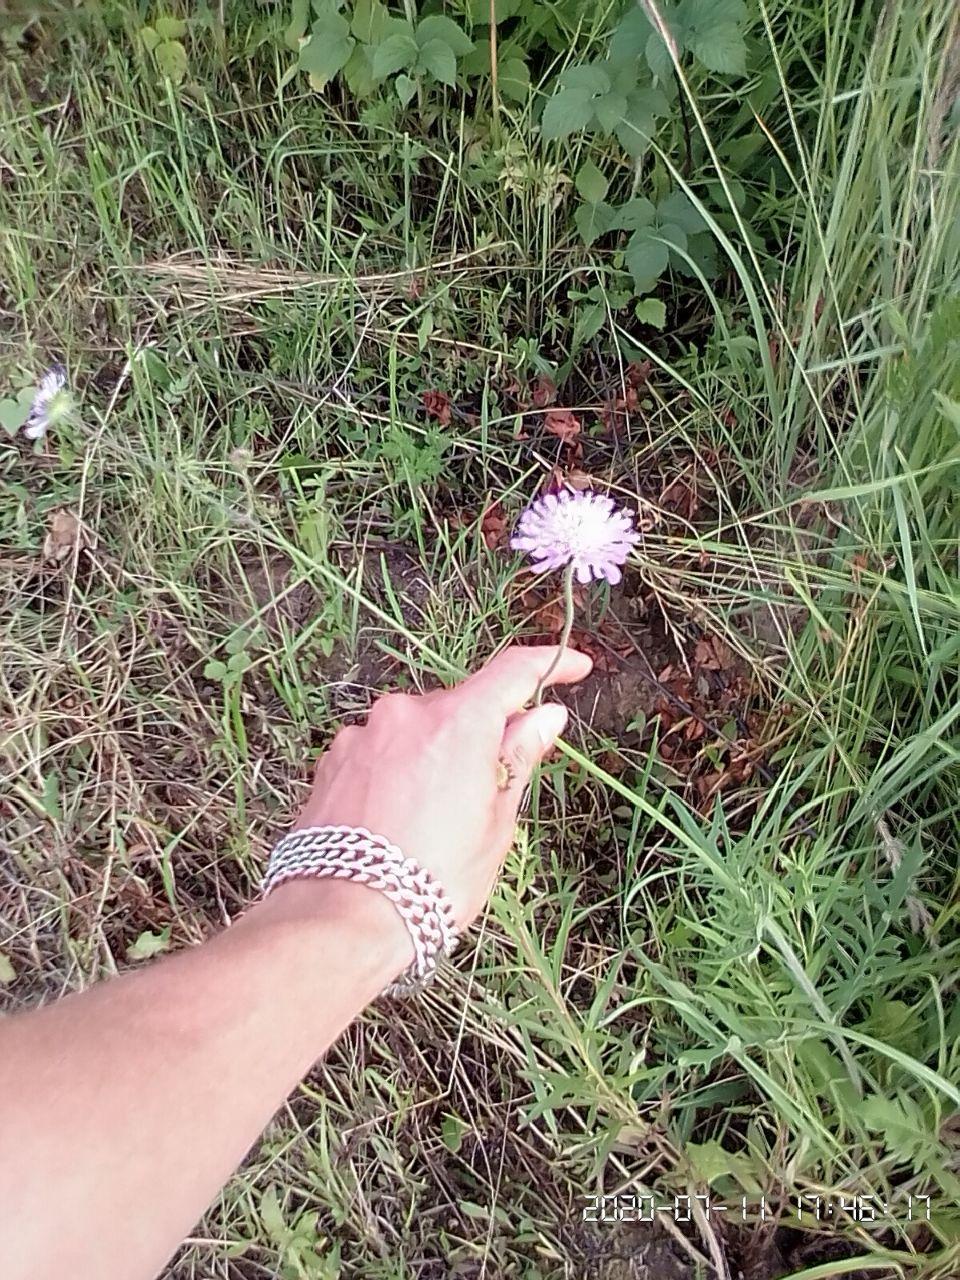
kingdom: Plantae
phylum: Tracheophyta
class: Magnoliopsida
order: Dipsacales
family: Caprifoliaceae
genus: Knautia
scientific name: Knautia arvensis
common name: Field scabiosa
